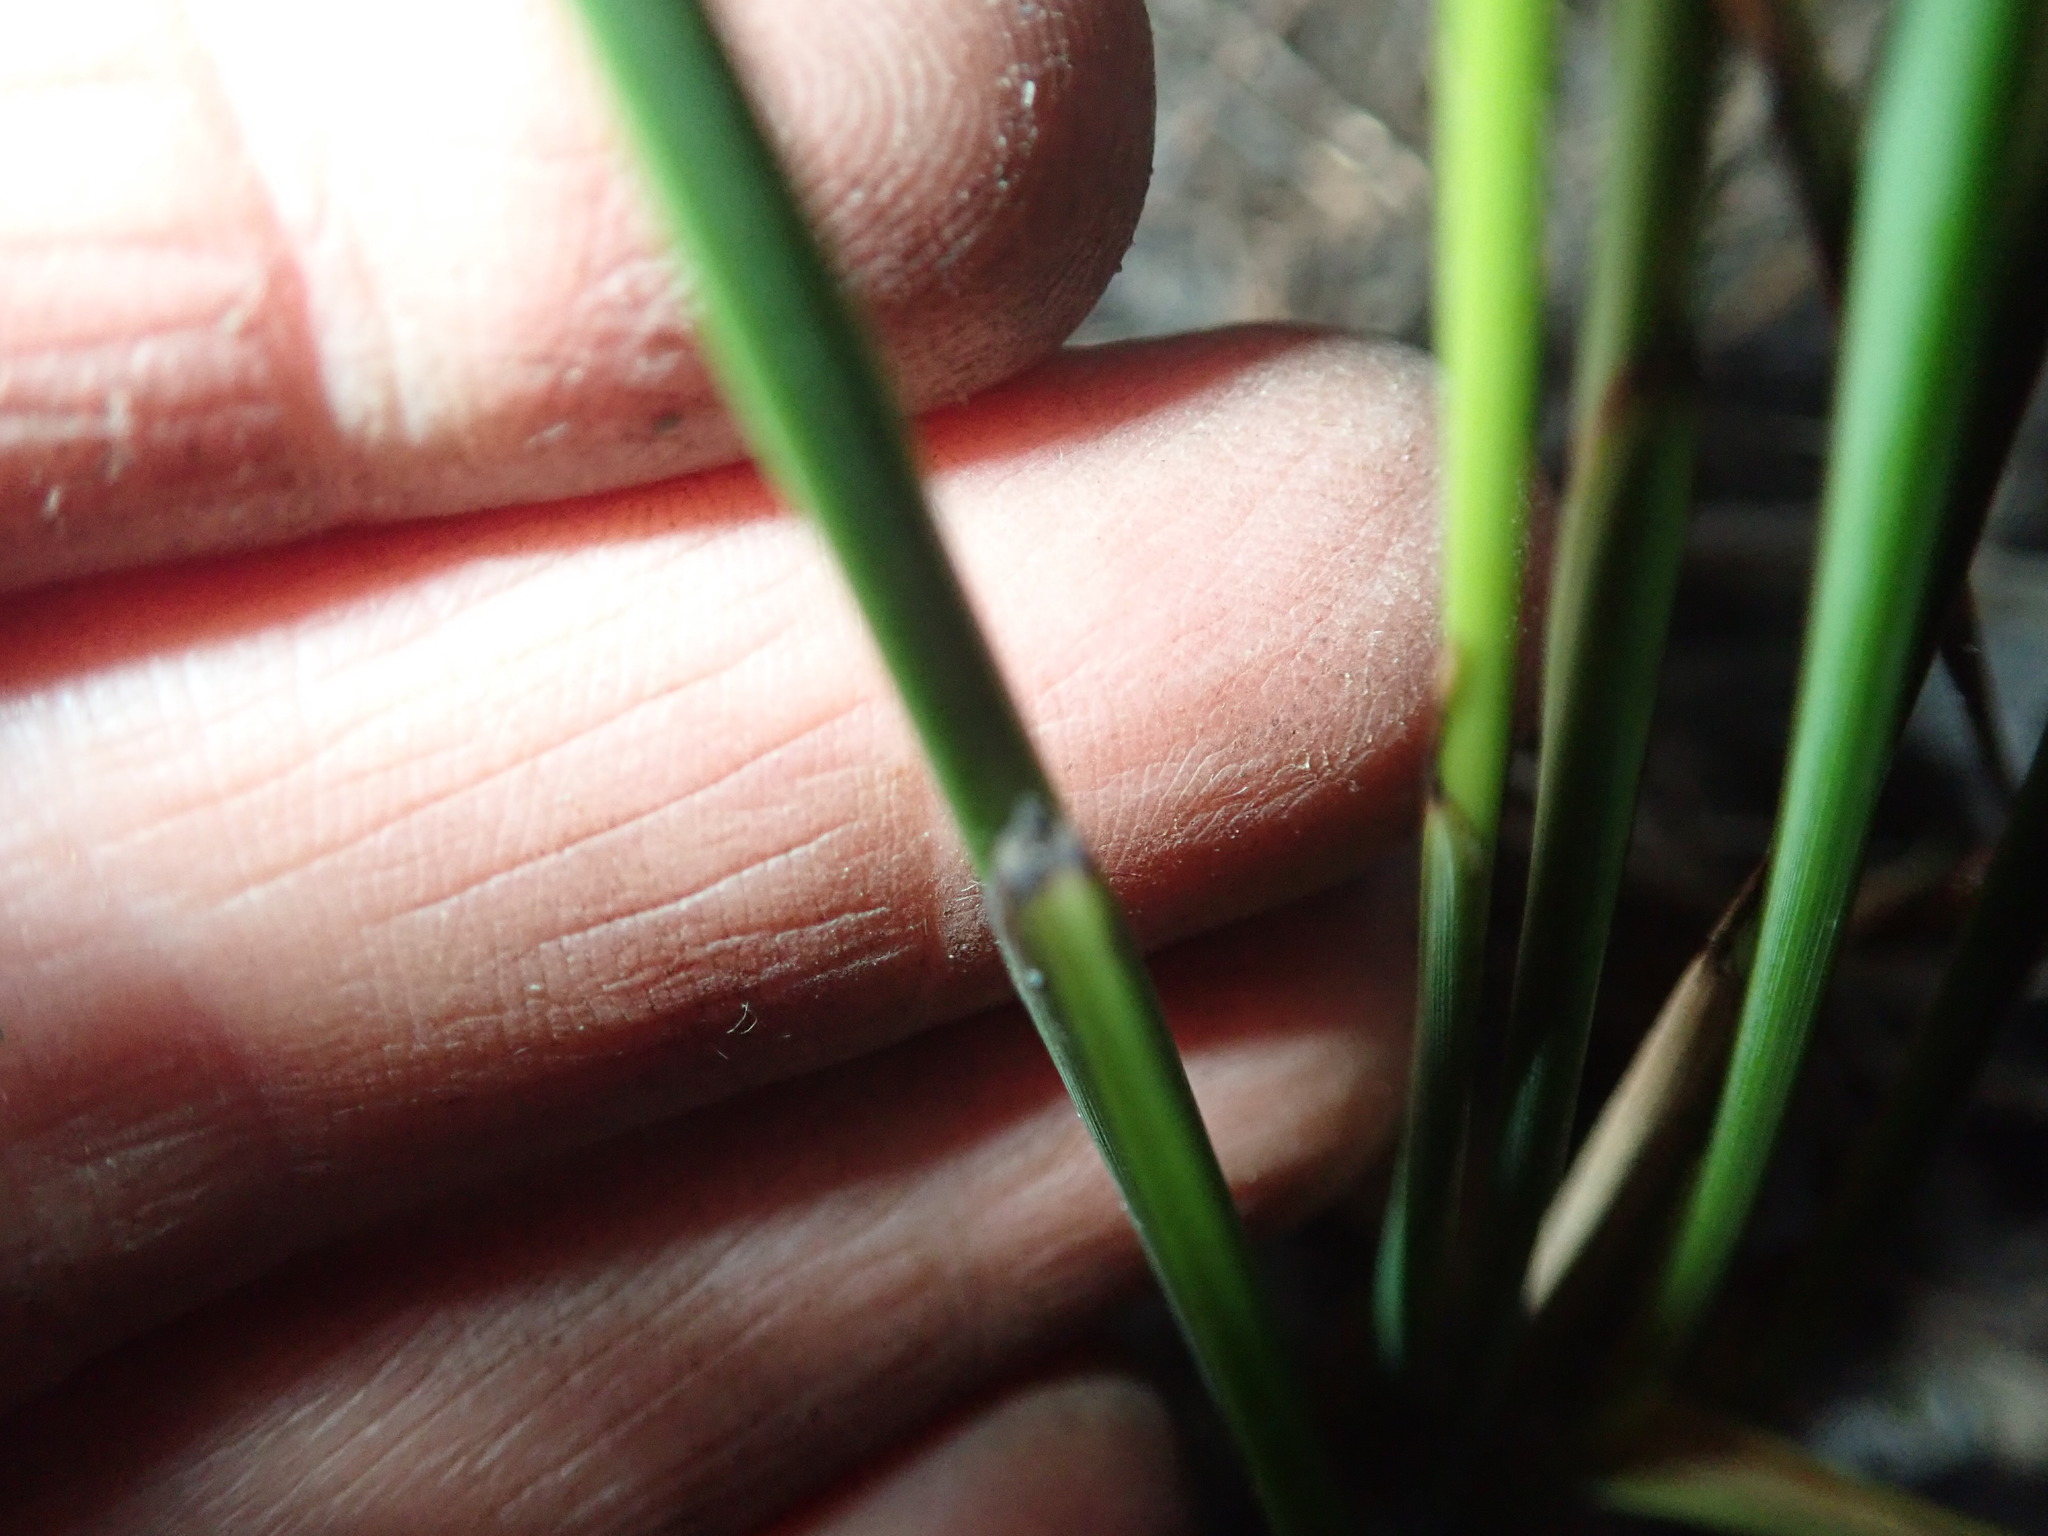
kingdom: Plantae
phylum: Tracheophyta
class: Liliopsida
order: Poales
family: Cyperaceae
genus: Lepidosperma
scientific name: Lepidosperma australe
